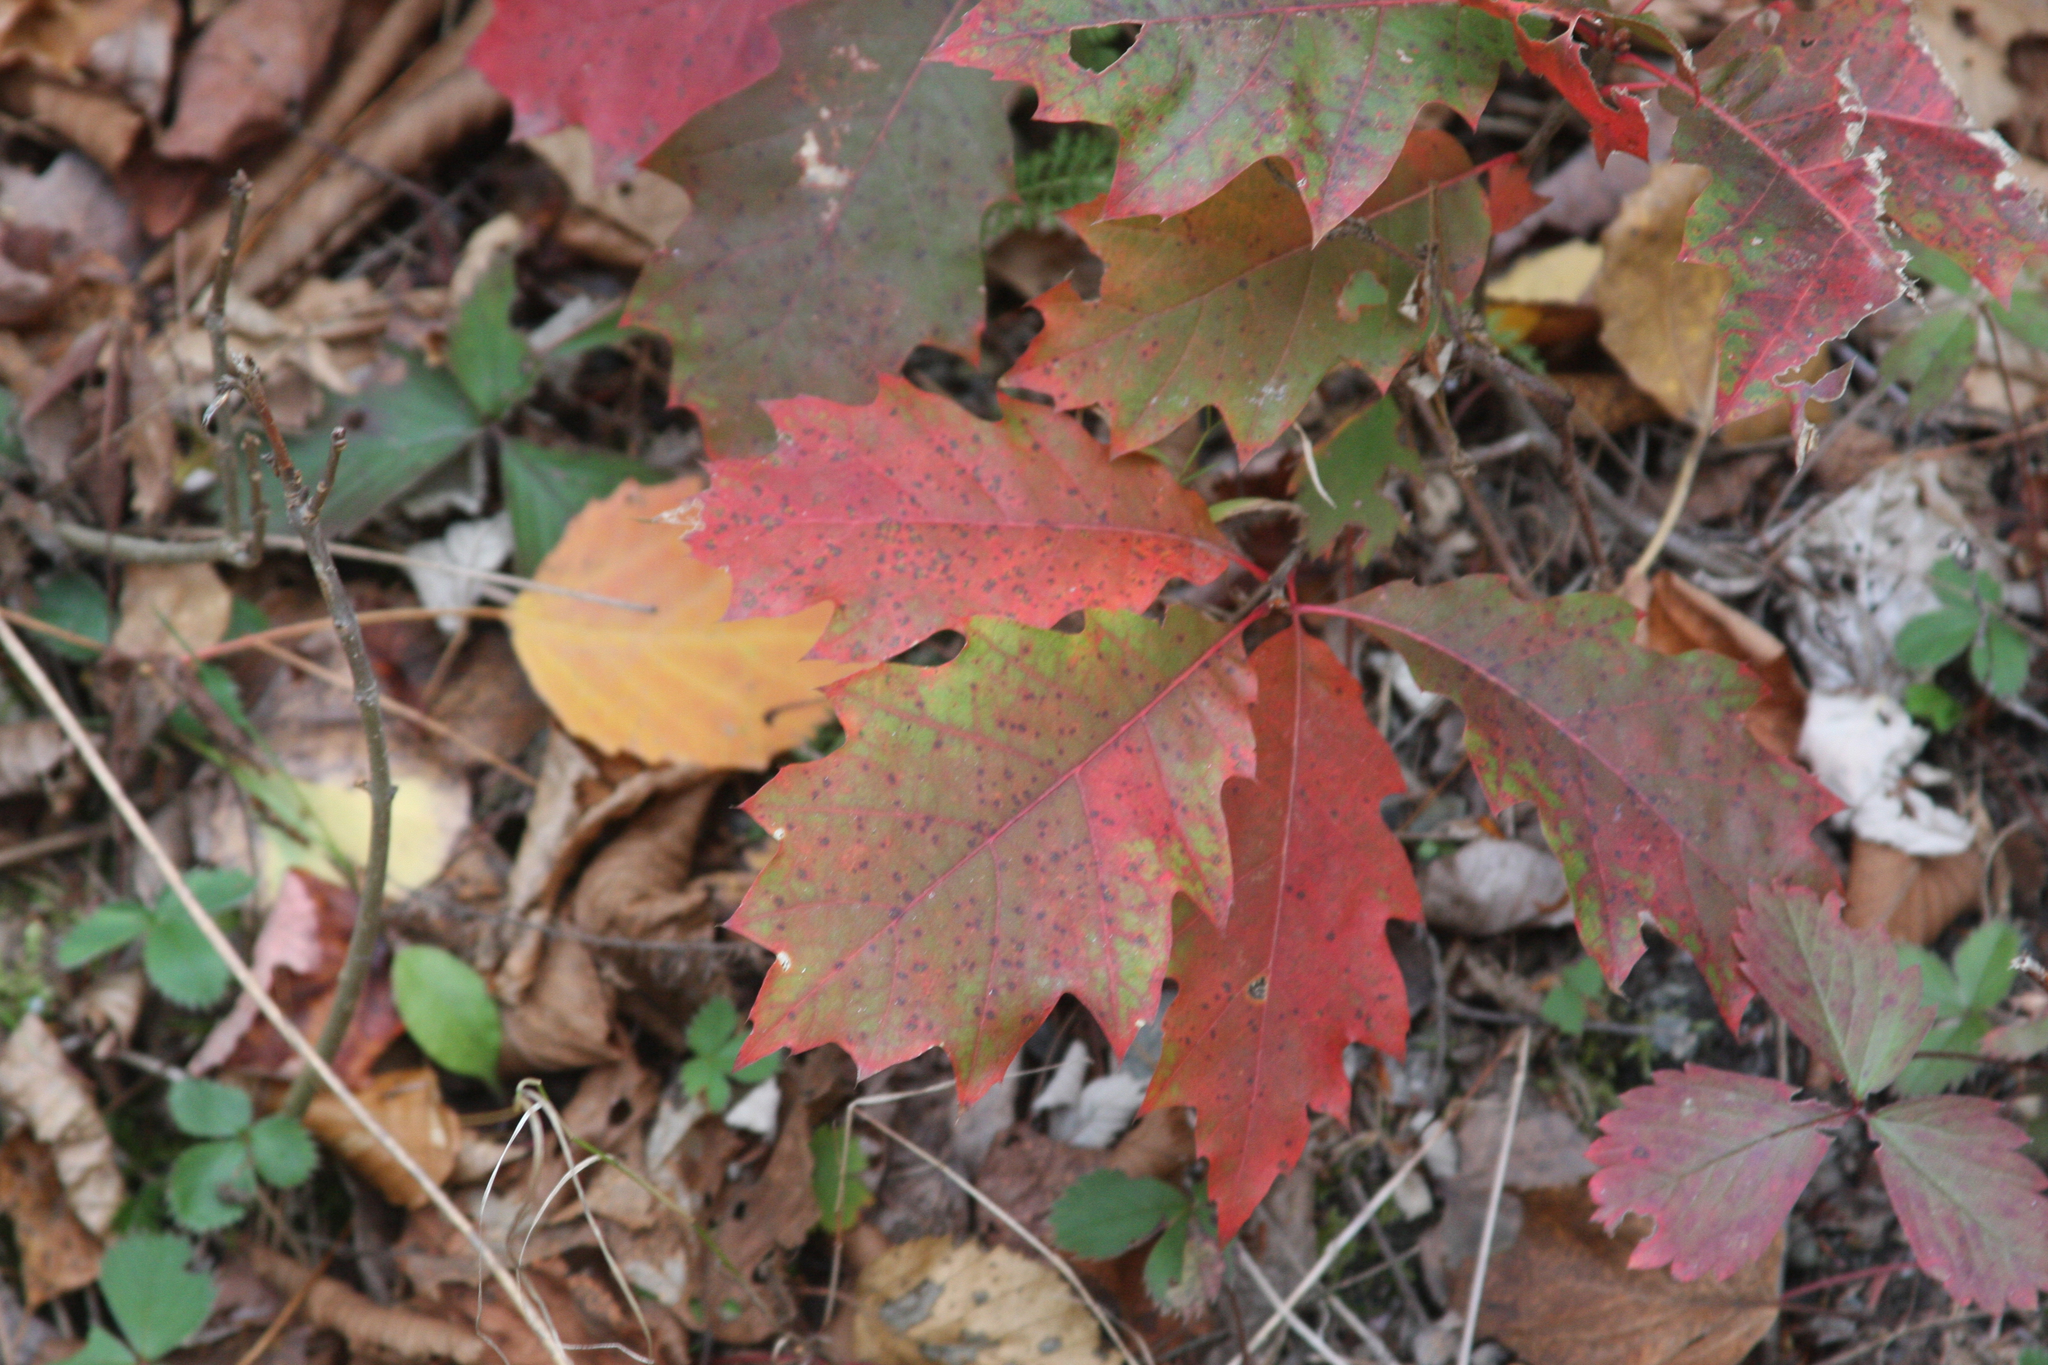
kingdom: Plantae
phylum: Tracheophyta
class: Magnoliopsida
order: Fagales
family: Fagaceae
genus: Quercus
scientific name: Quercus rubra
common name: Red oak
